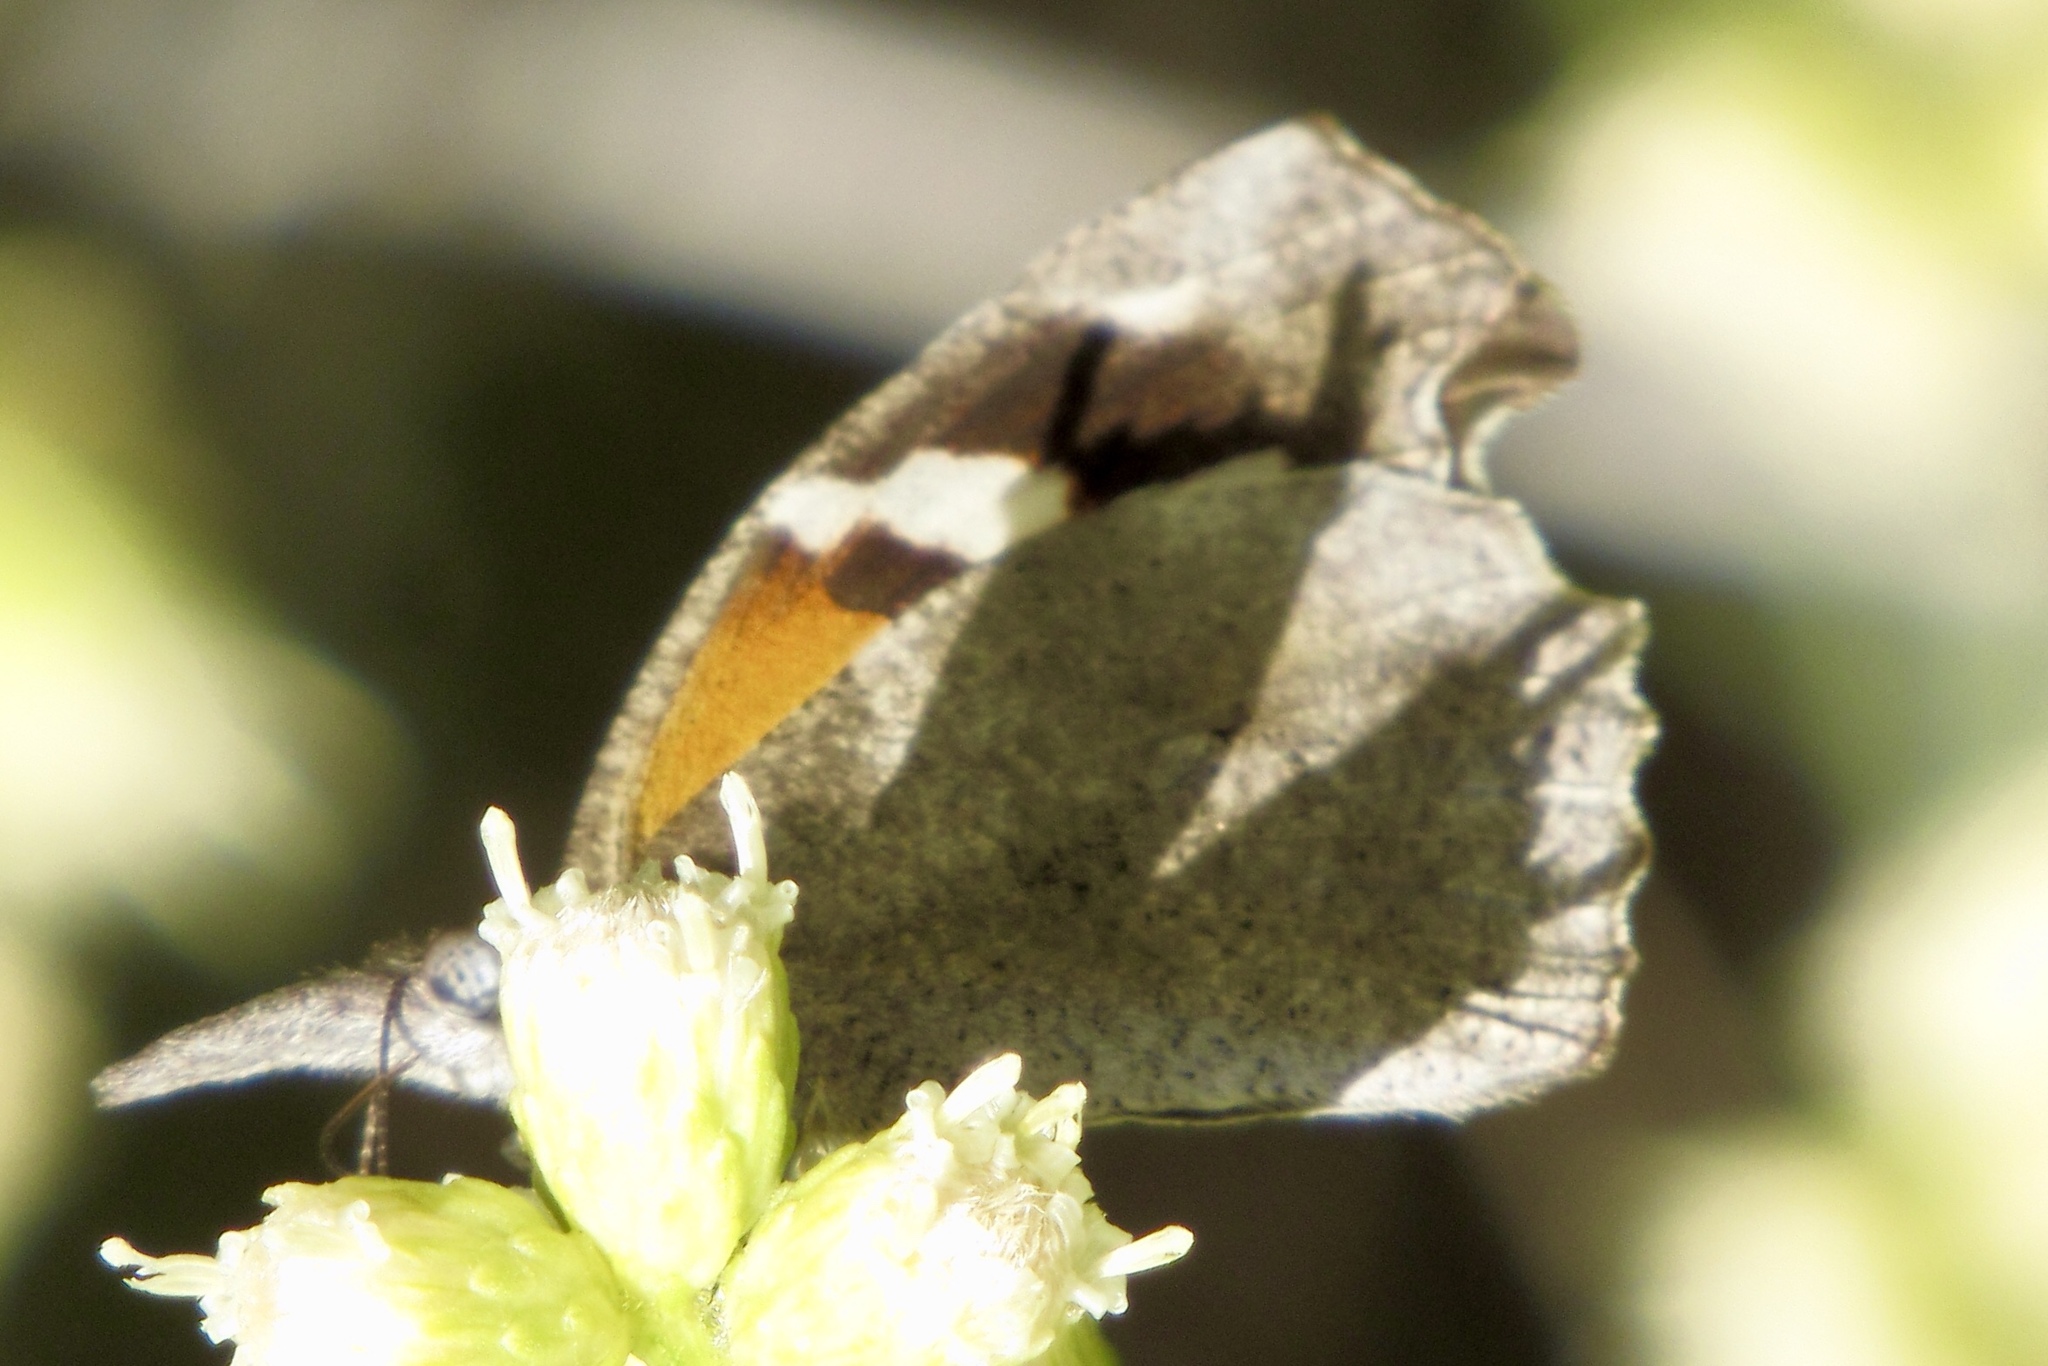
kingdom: Animalia
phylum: Arthropoda
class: Insecta
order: Lepidoptera
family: Nymphalidae
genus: Libytheana
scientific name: Libytheana carinenta
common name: American snout
